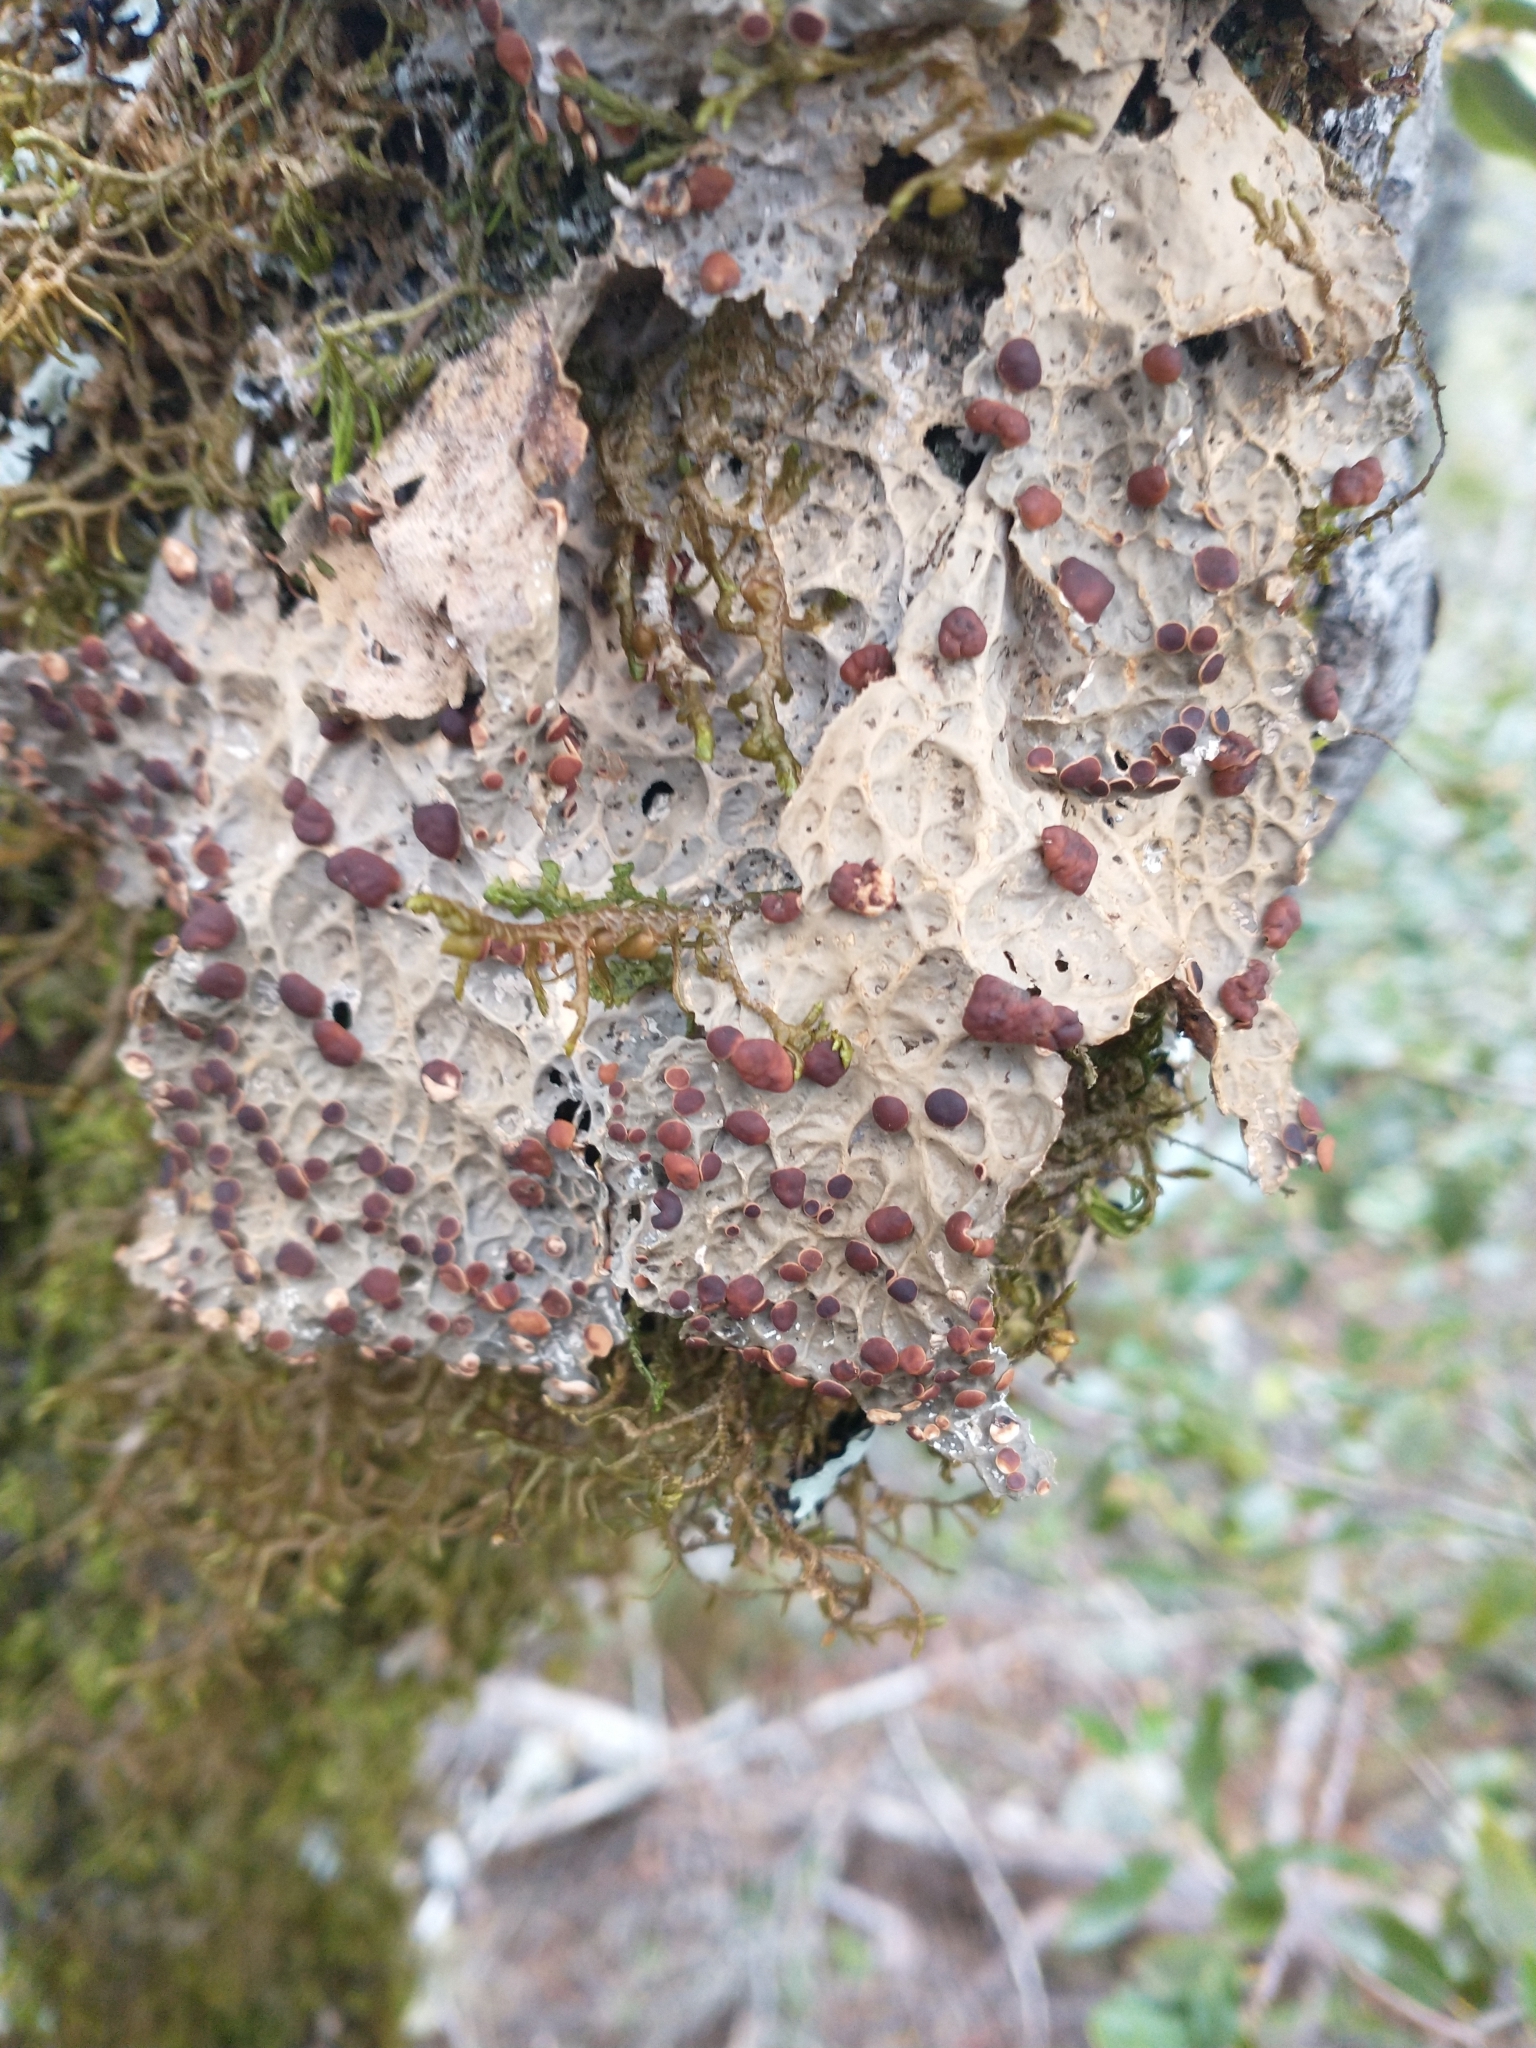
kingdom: Fungi
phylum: Ascomycota
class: Lecanoromycetes
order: Peltigerales
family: Lobariaceae
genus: Lobaria
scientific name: Lobaria anthraspis
